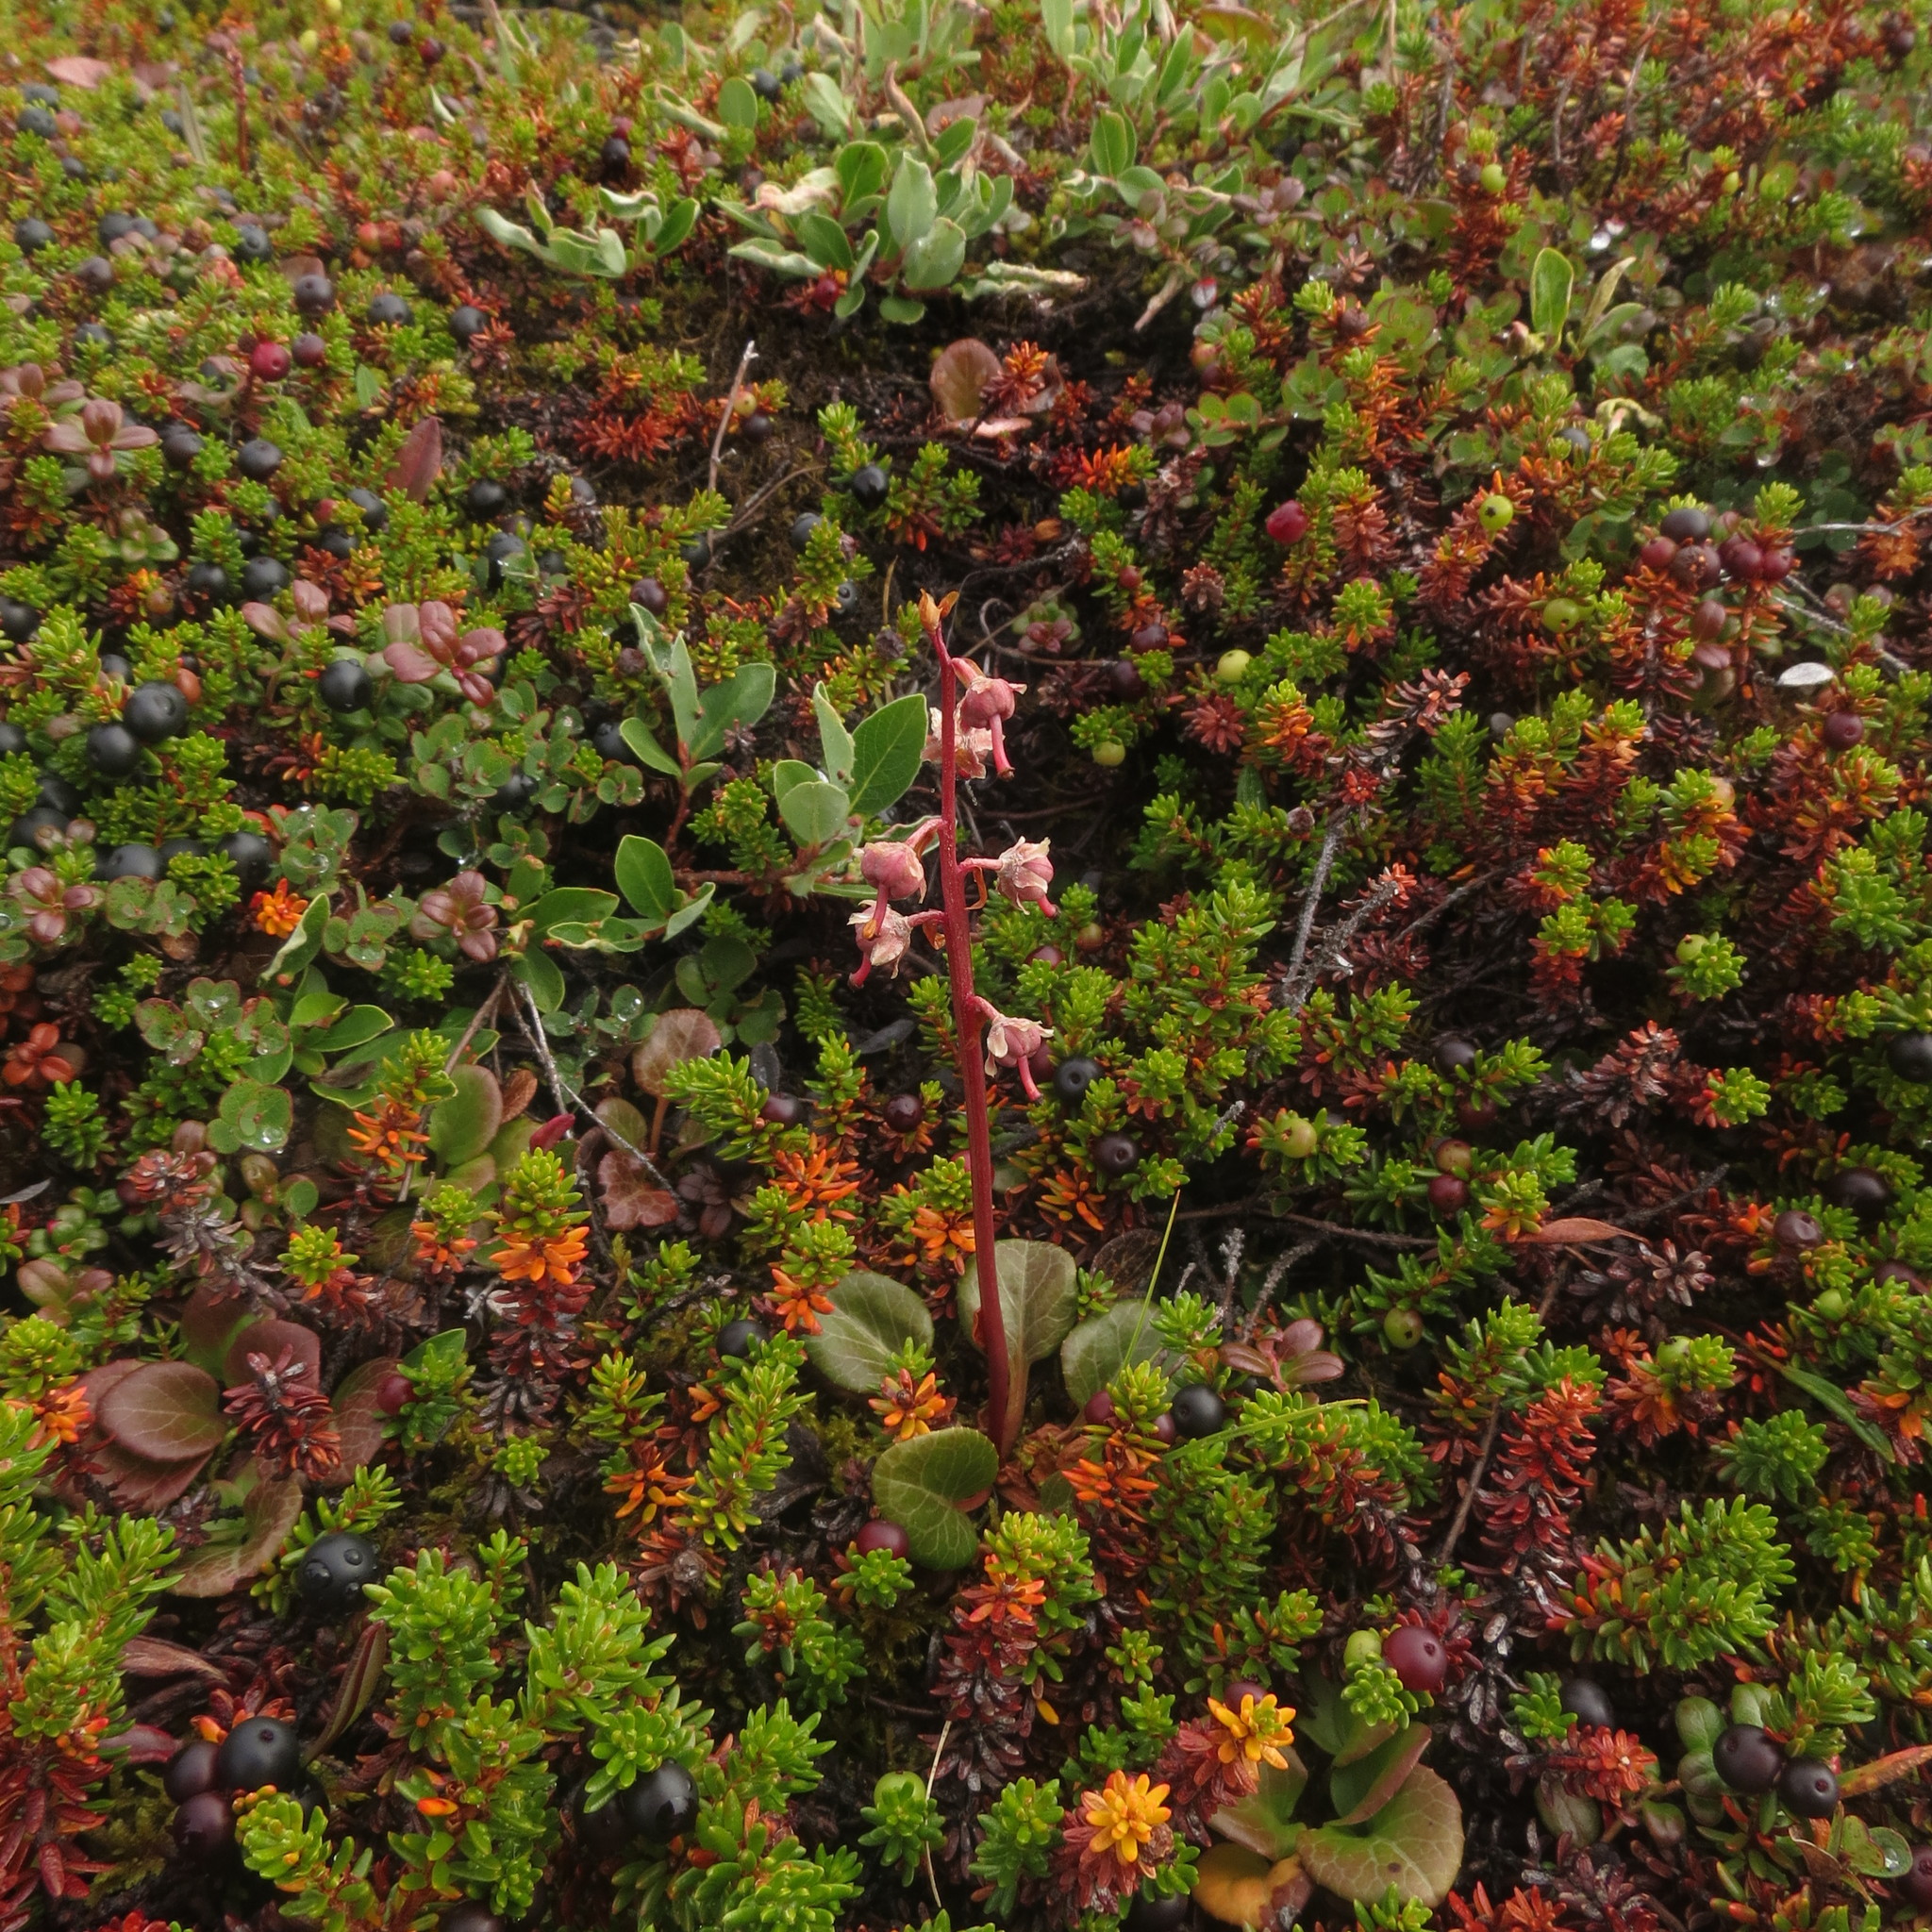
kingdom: Plantae
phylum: Tracheophyta
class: Magnoliopsida
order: Ericales
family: Ericaceae
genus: Pyrola
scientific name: Pyrola grandiflora
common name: Arctic pyrola
